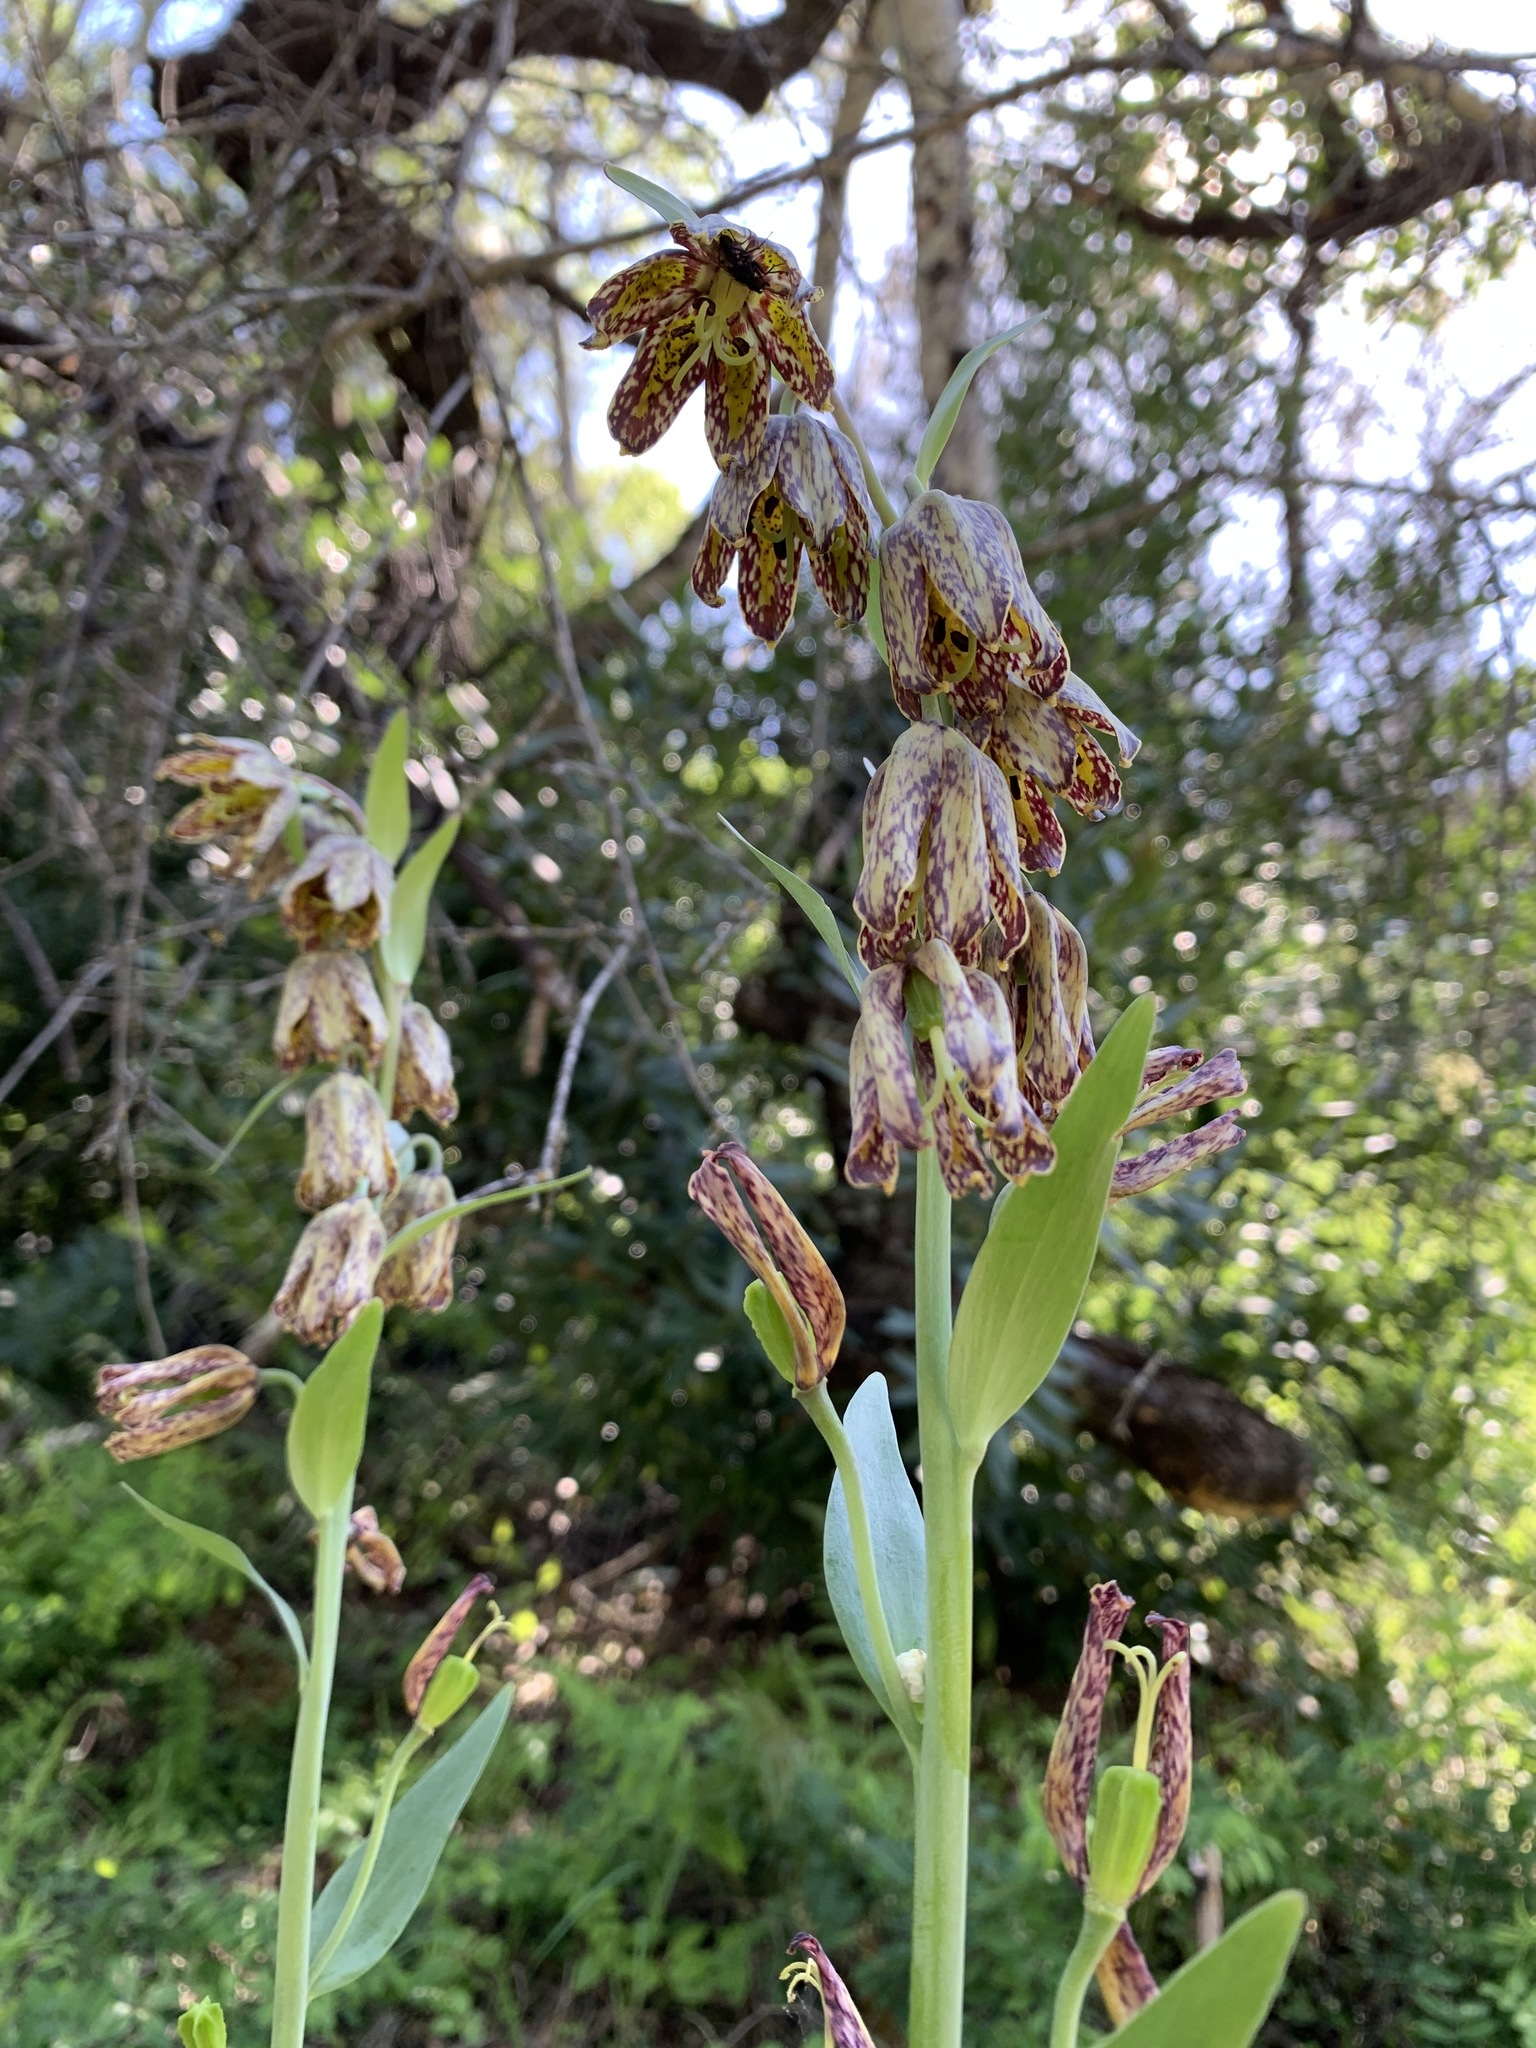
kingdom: Plantae
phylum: Tracheophyta
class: Liliopsida
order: Liliales
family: Liliaceae
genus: Fritillaria
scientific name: Fritillaria affinis
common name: Ojai fritillary
